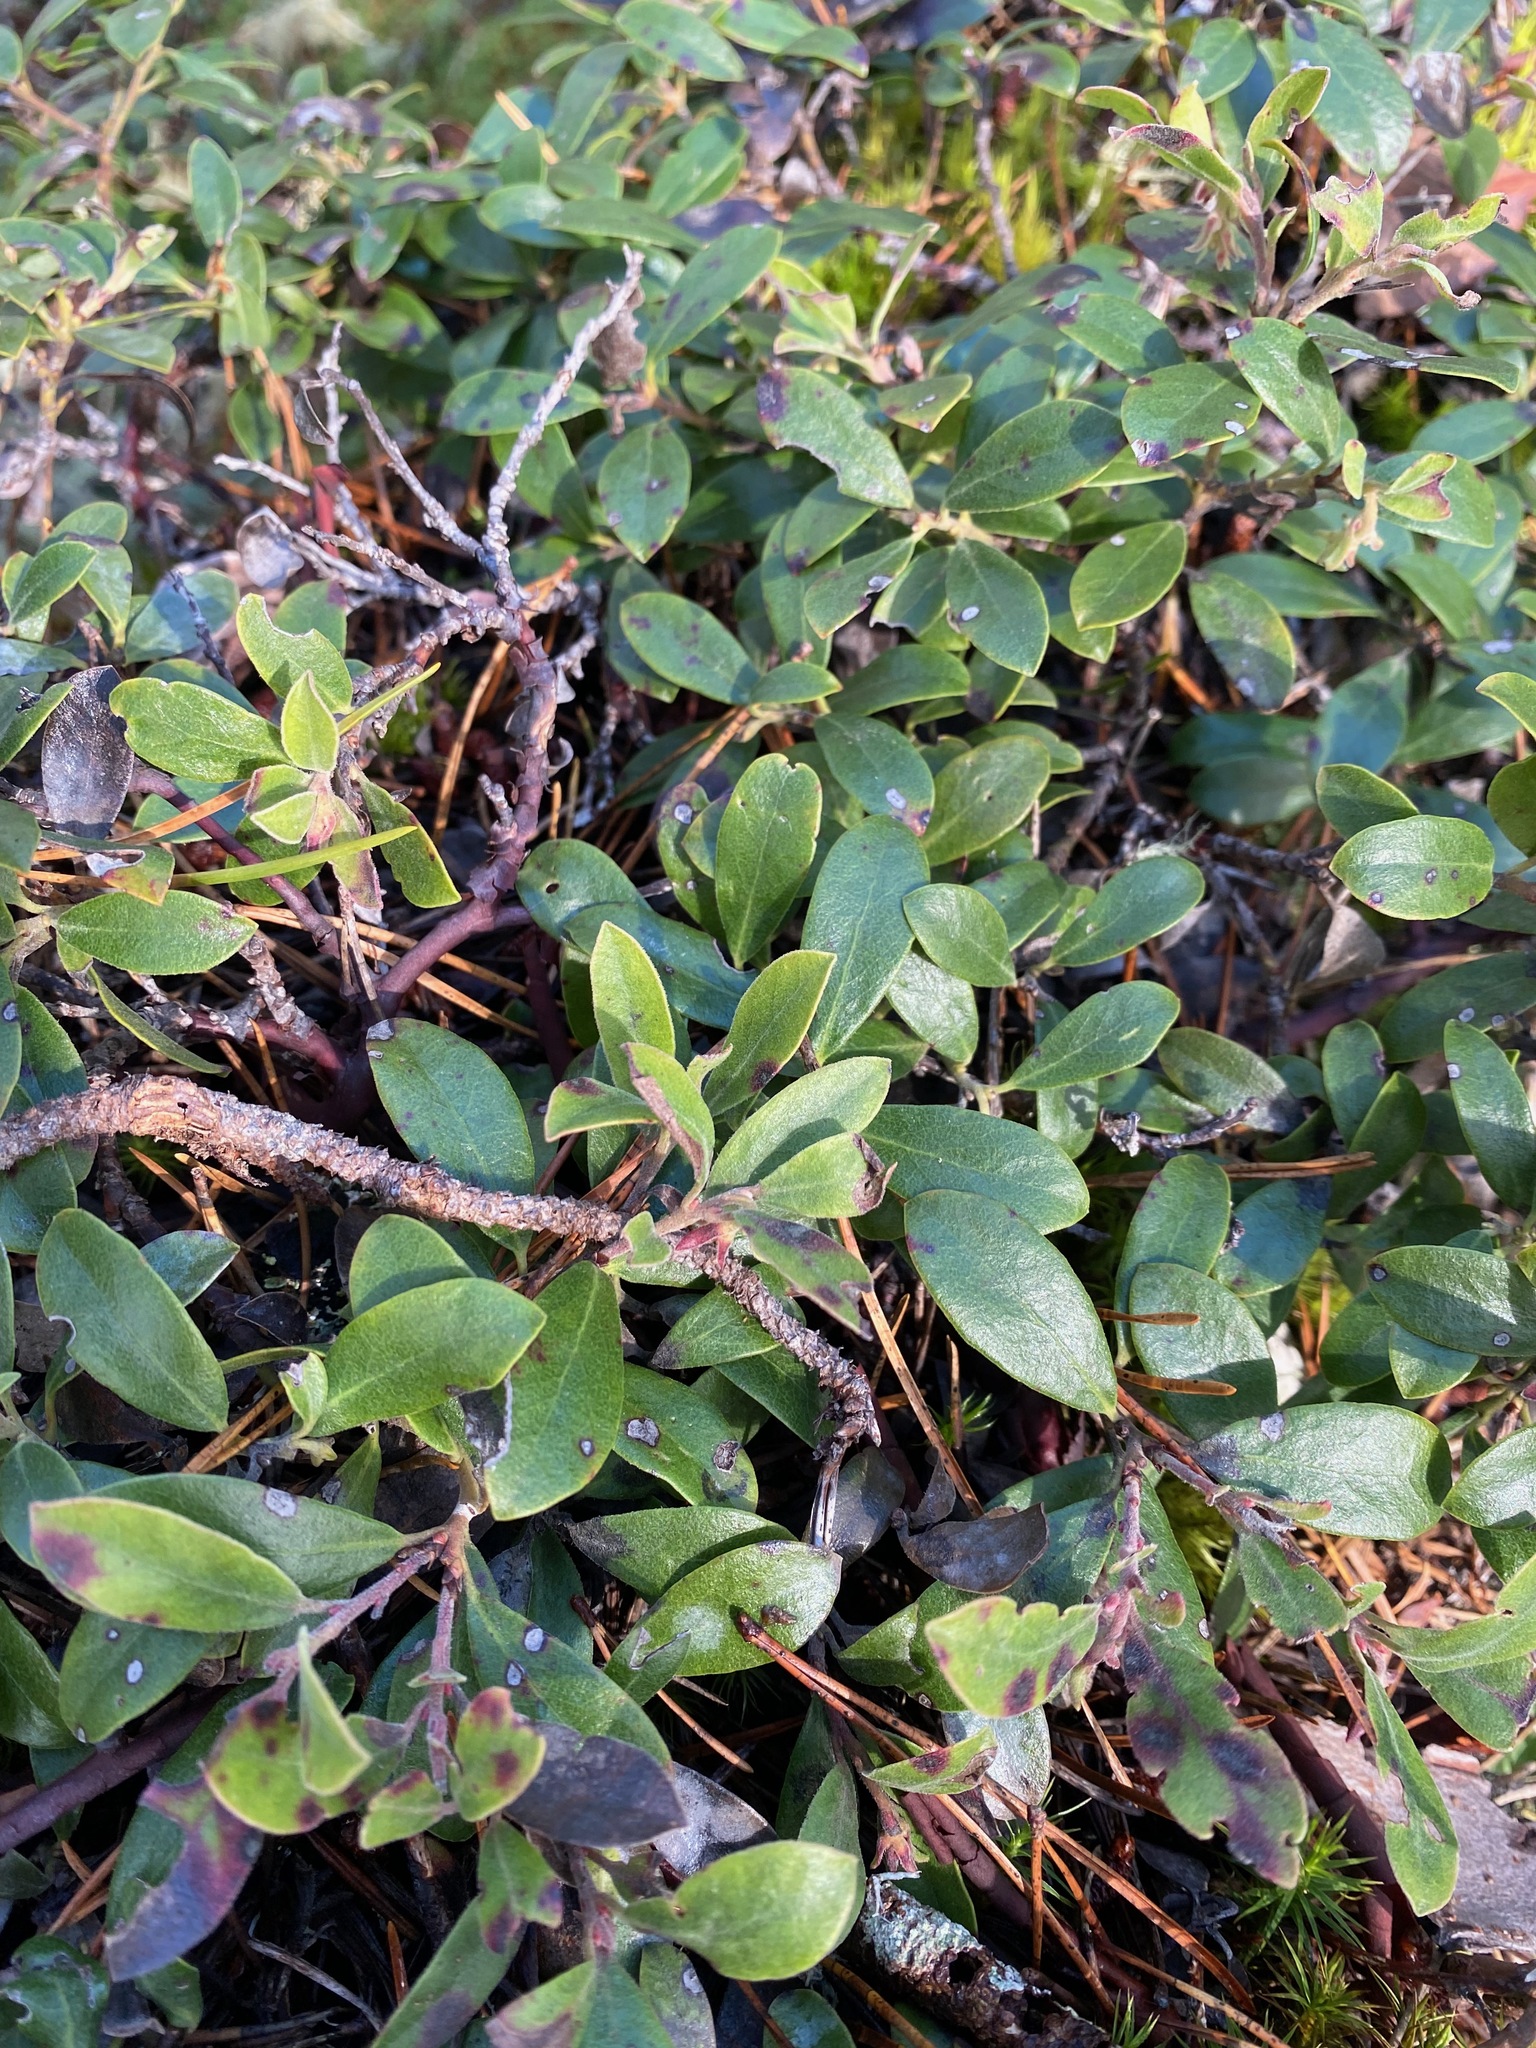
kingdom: Plantae
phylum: Tracheophyta
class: Magnoliopsida
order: Ericales
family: Ericaceae
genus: Arctostaphylos
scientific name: Arctostaphylos uva-ursi
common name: Bearberry
